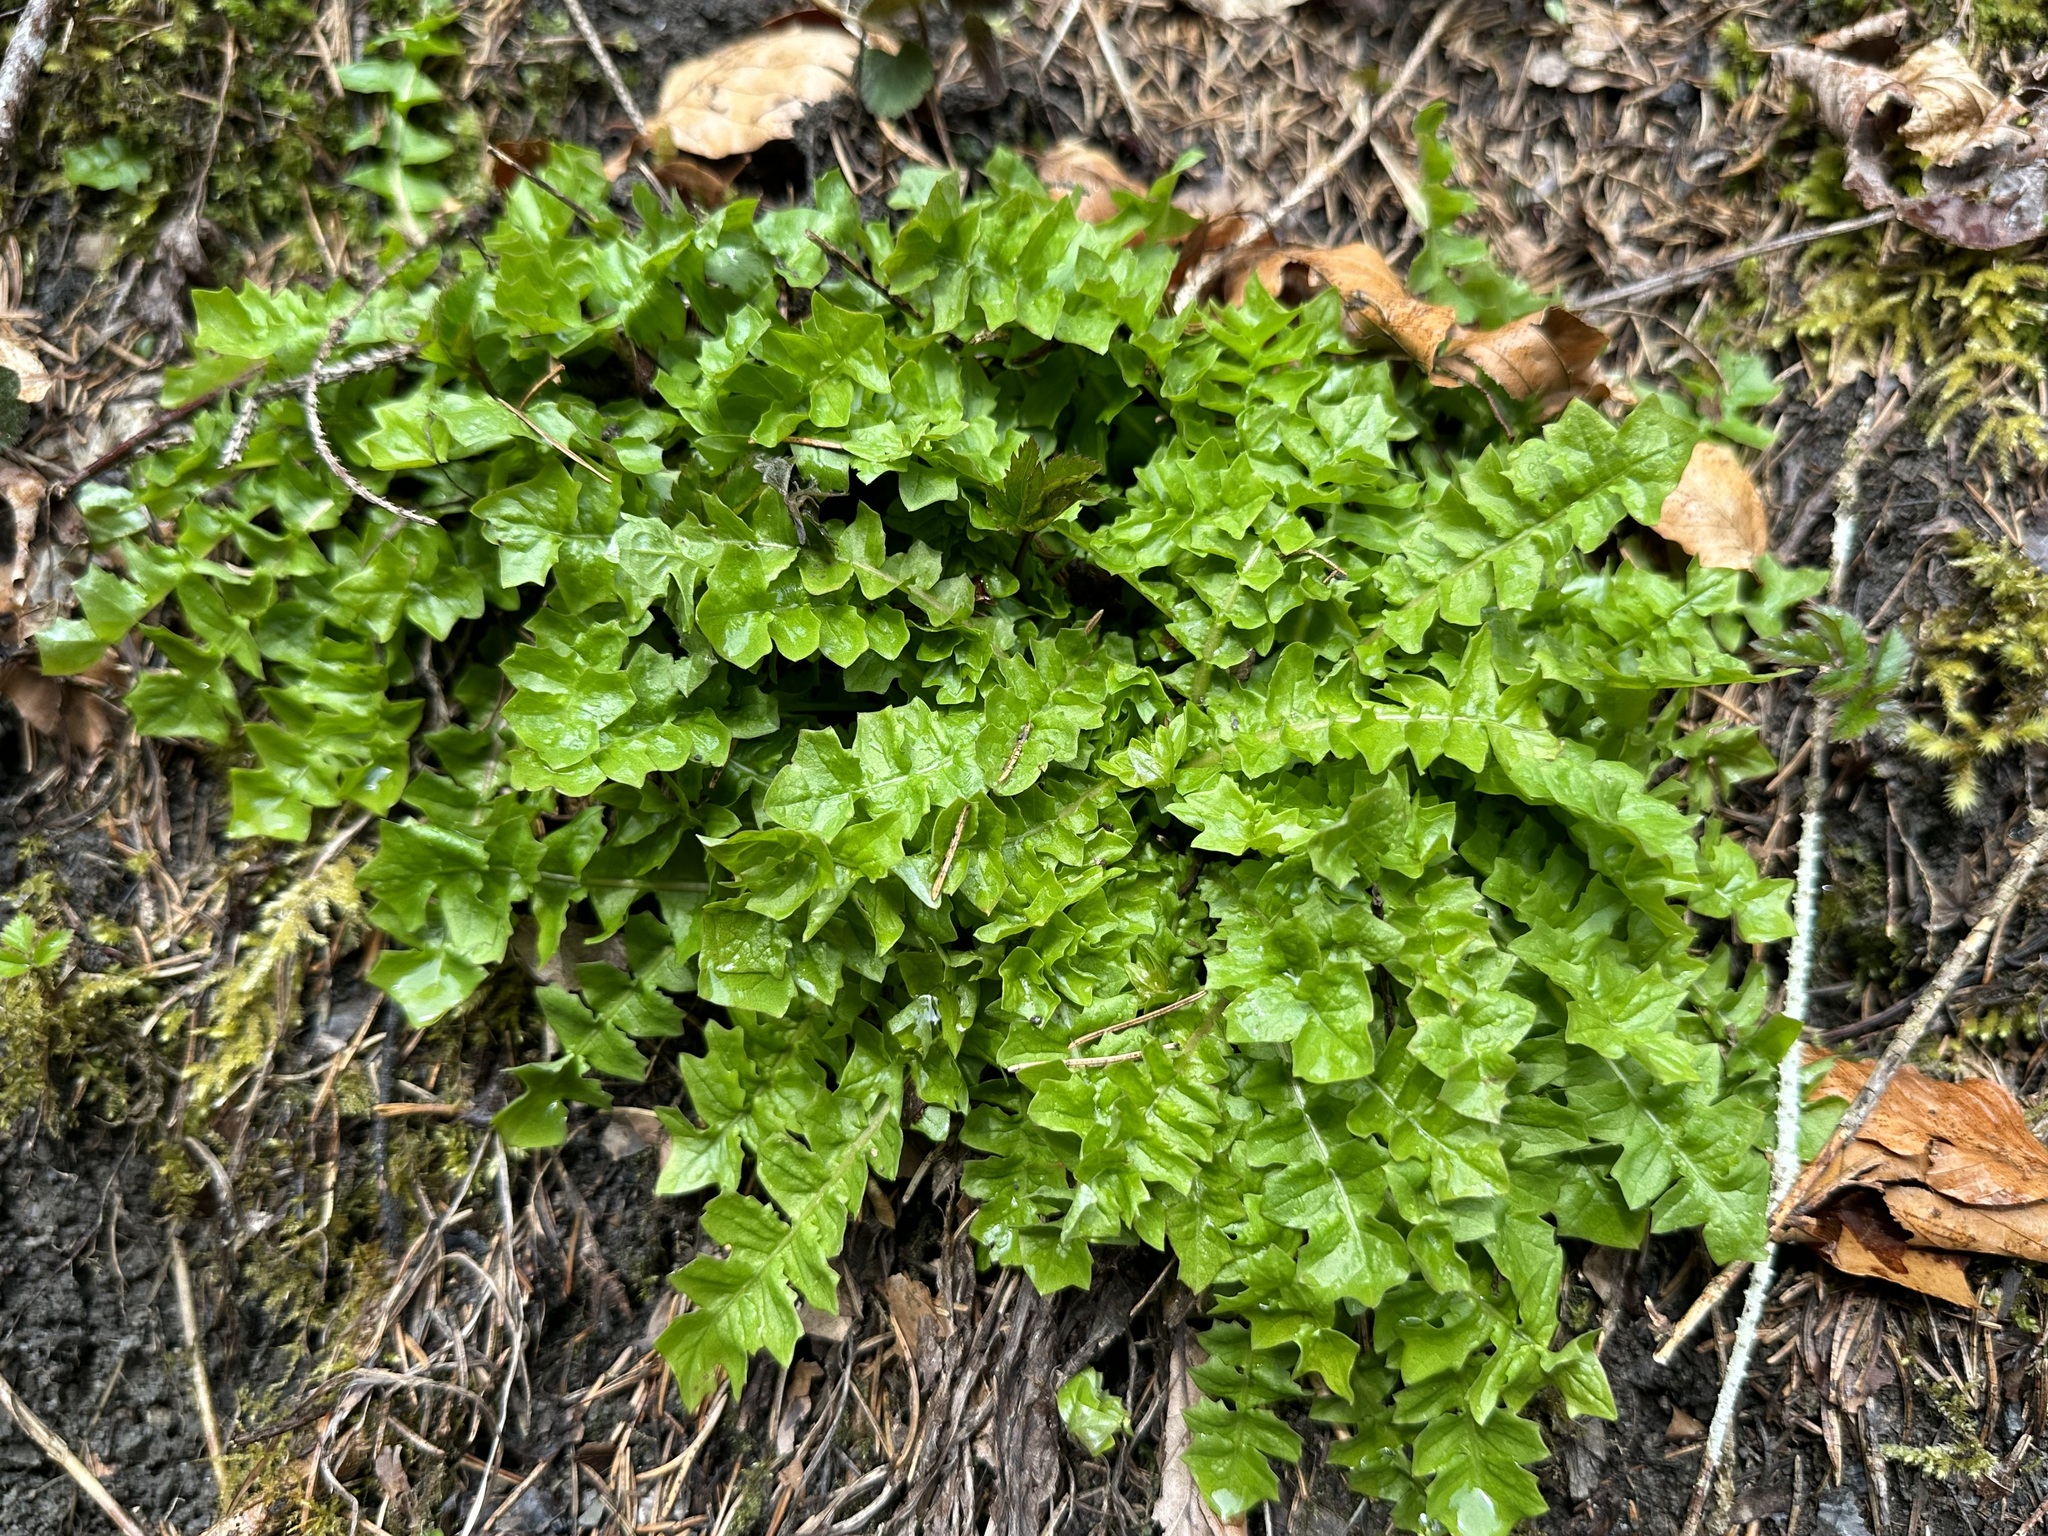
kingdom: Plantae
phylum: Tracheophyta
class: Magnoliopsida
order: Asterales
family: Asteraceae
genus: Aposeris
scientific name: Aposeris foetida
